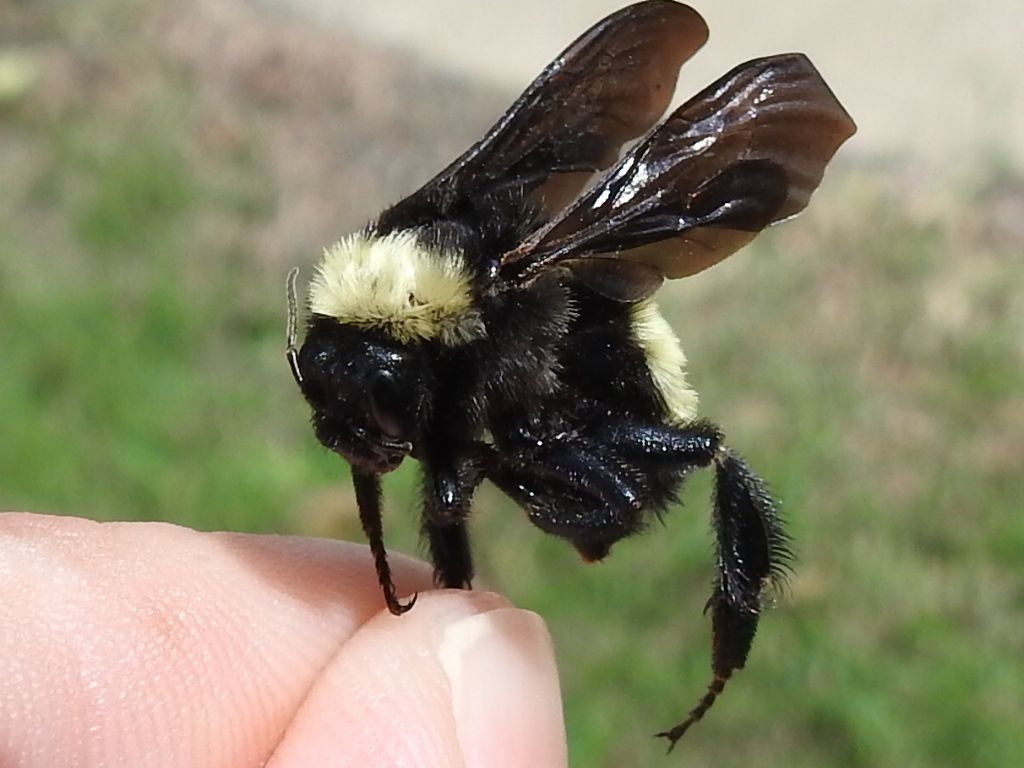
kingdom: Animalia
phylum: Arthropoda
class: Insecta
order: Hymenoptera
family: Apidae
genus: Bombus
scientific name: Bombus pensylvanicus
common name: Bumble bee
